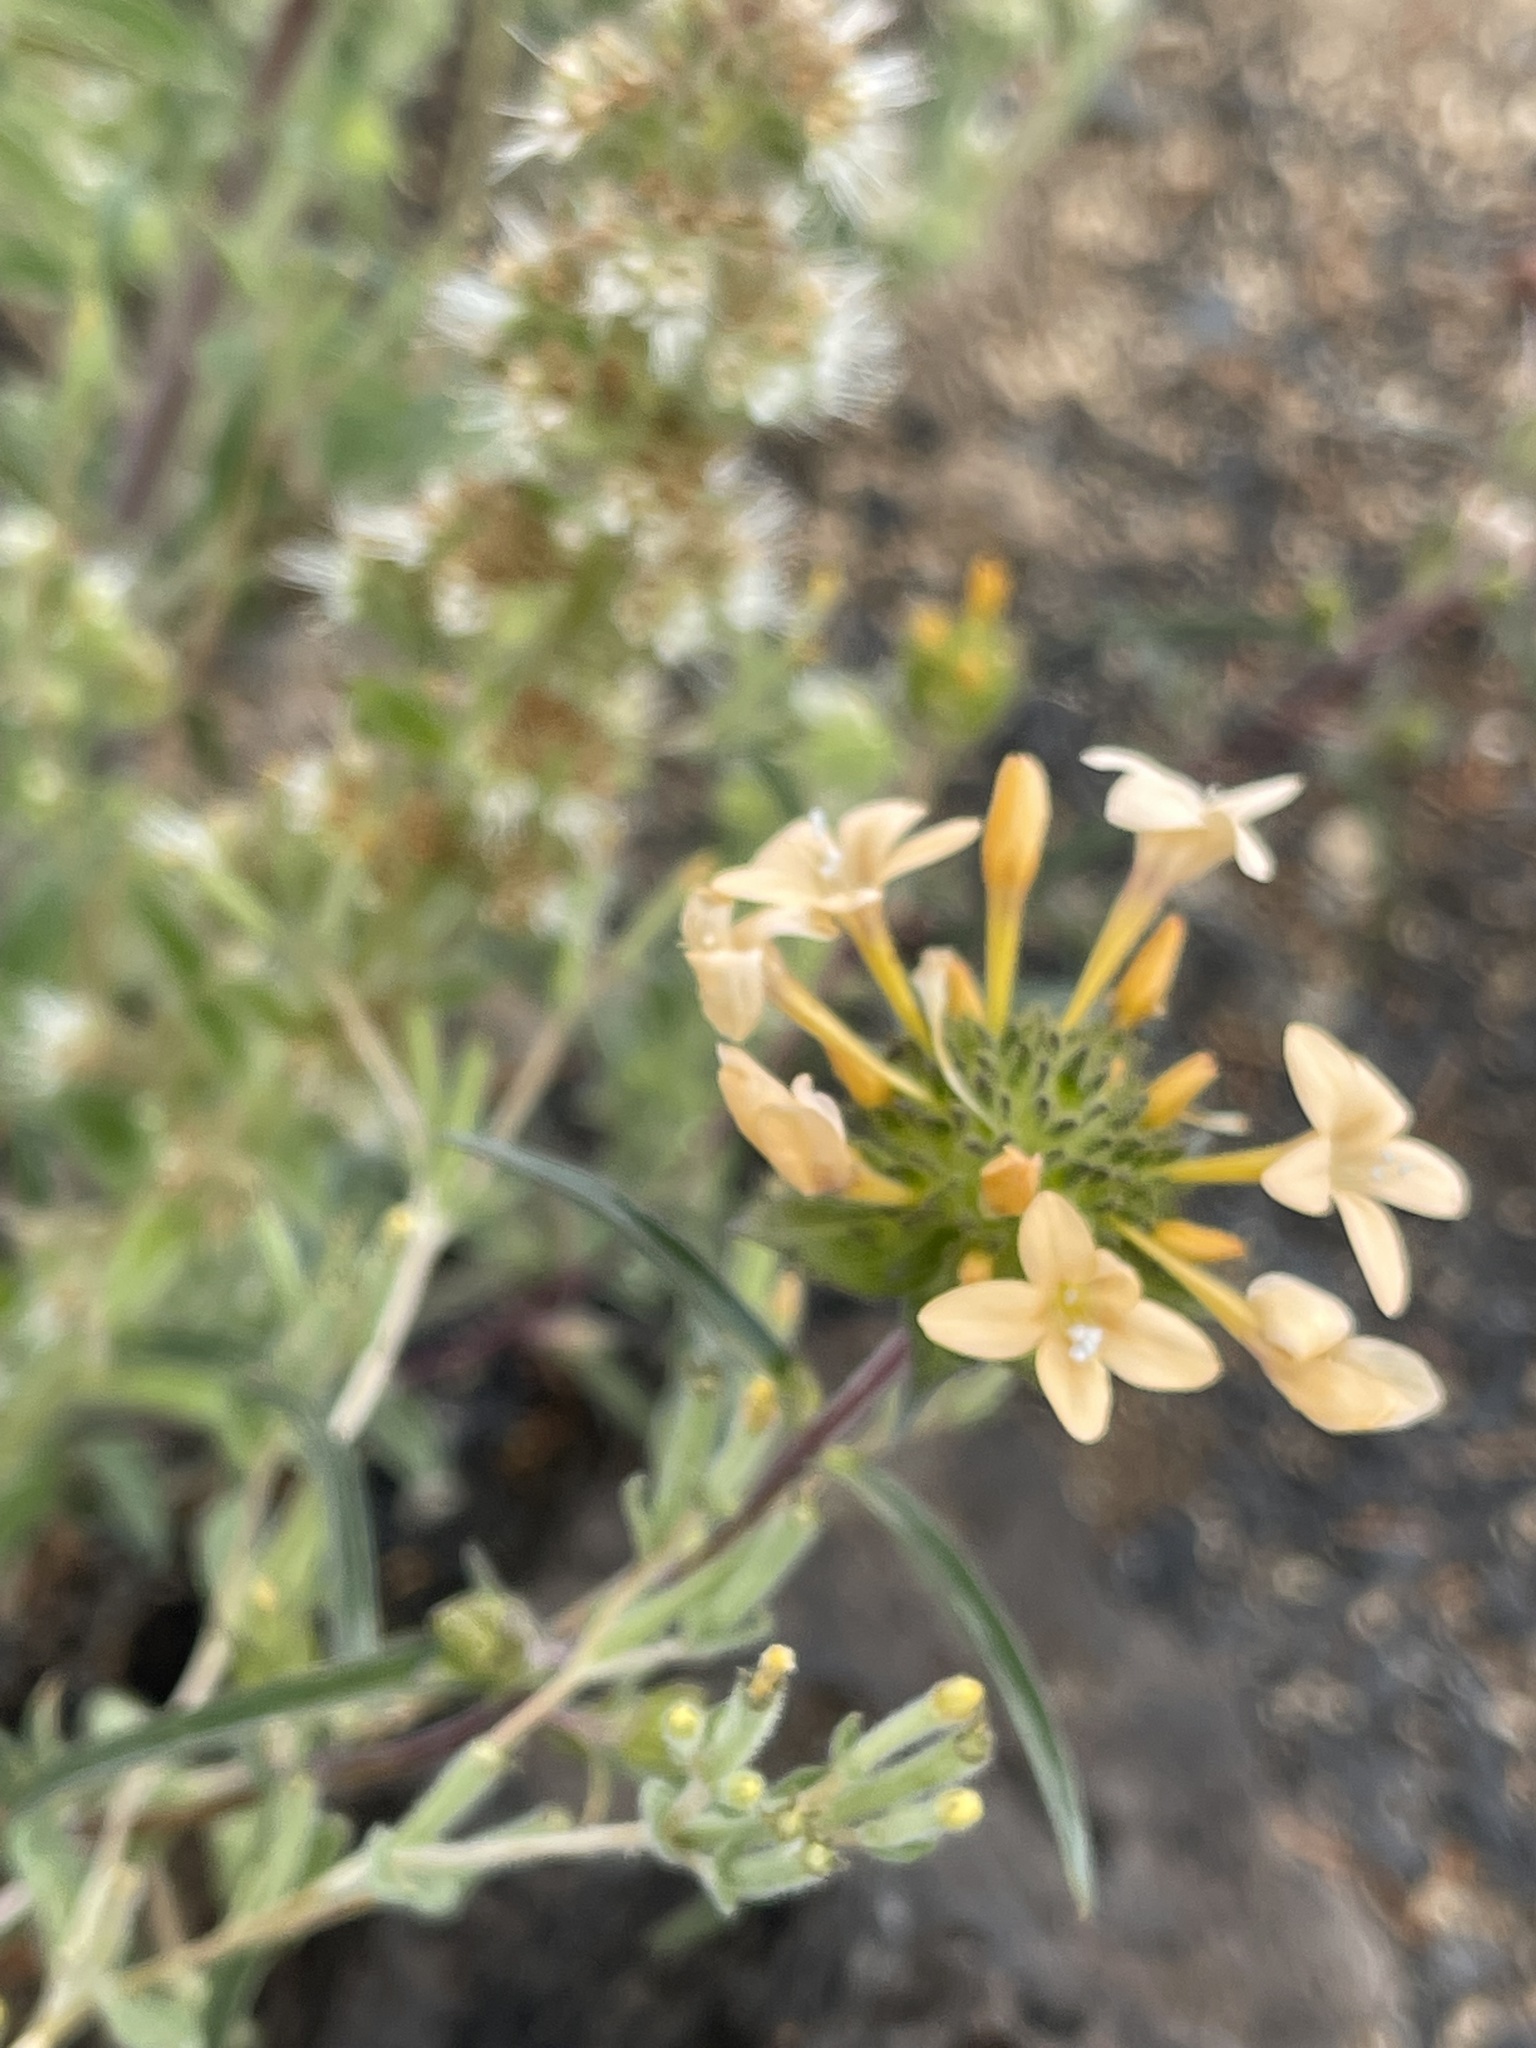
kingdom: Plantae
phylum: Tracheophyta
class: Magnoliopsida
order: Ericales
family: Polemoniaceae
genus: Collomia
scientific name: Collomia grandiflora
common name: California strawflower
